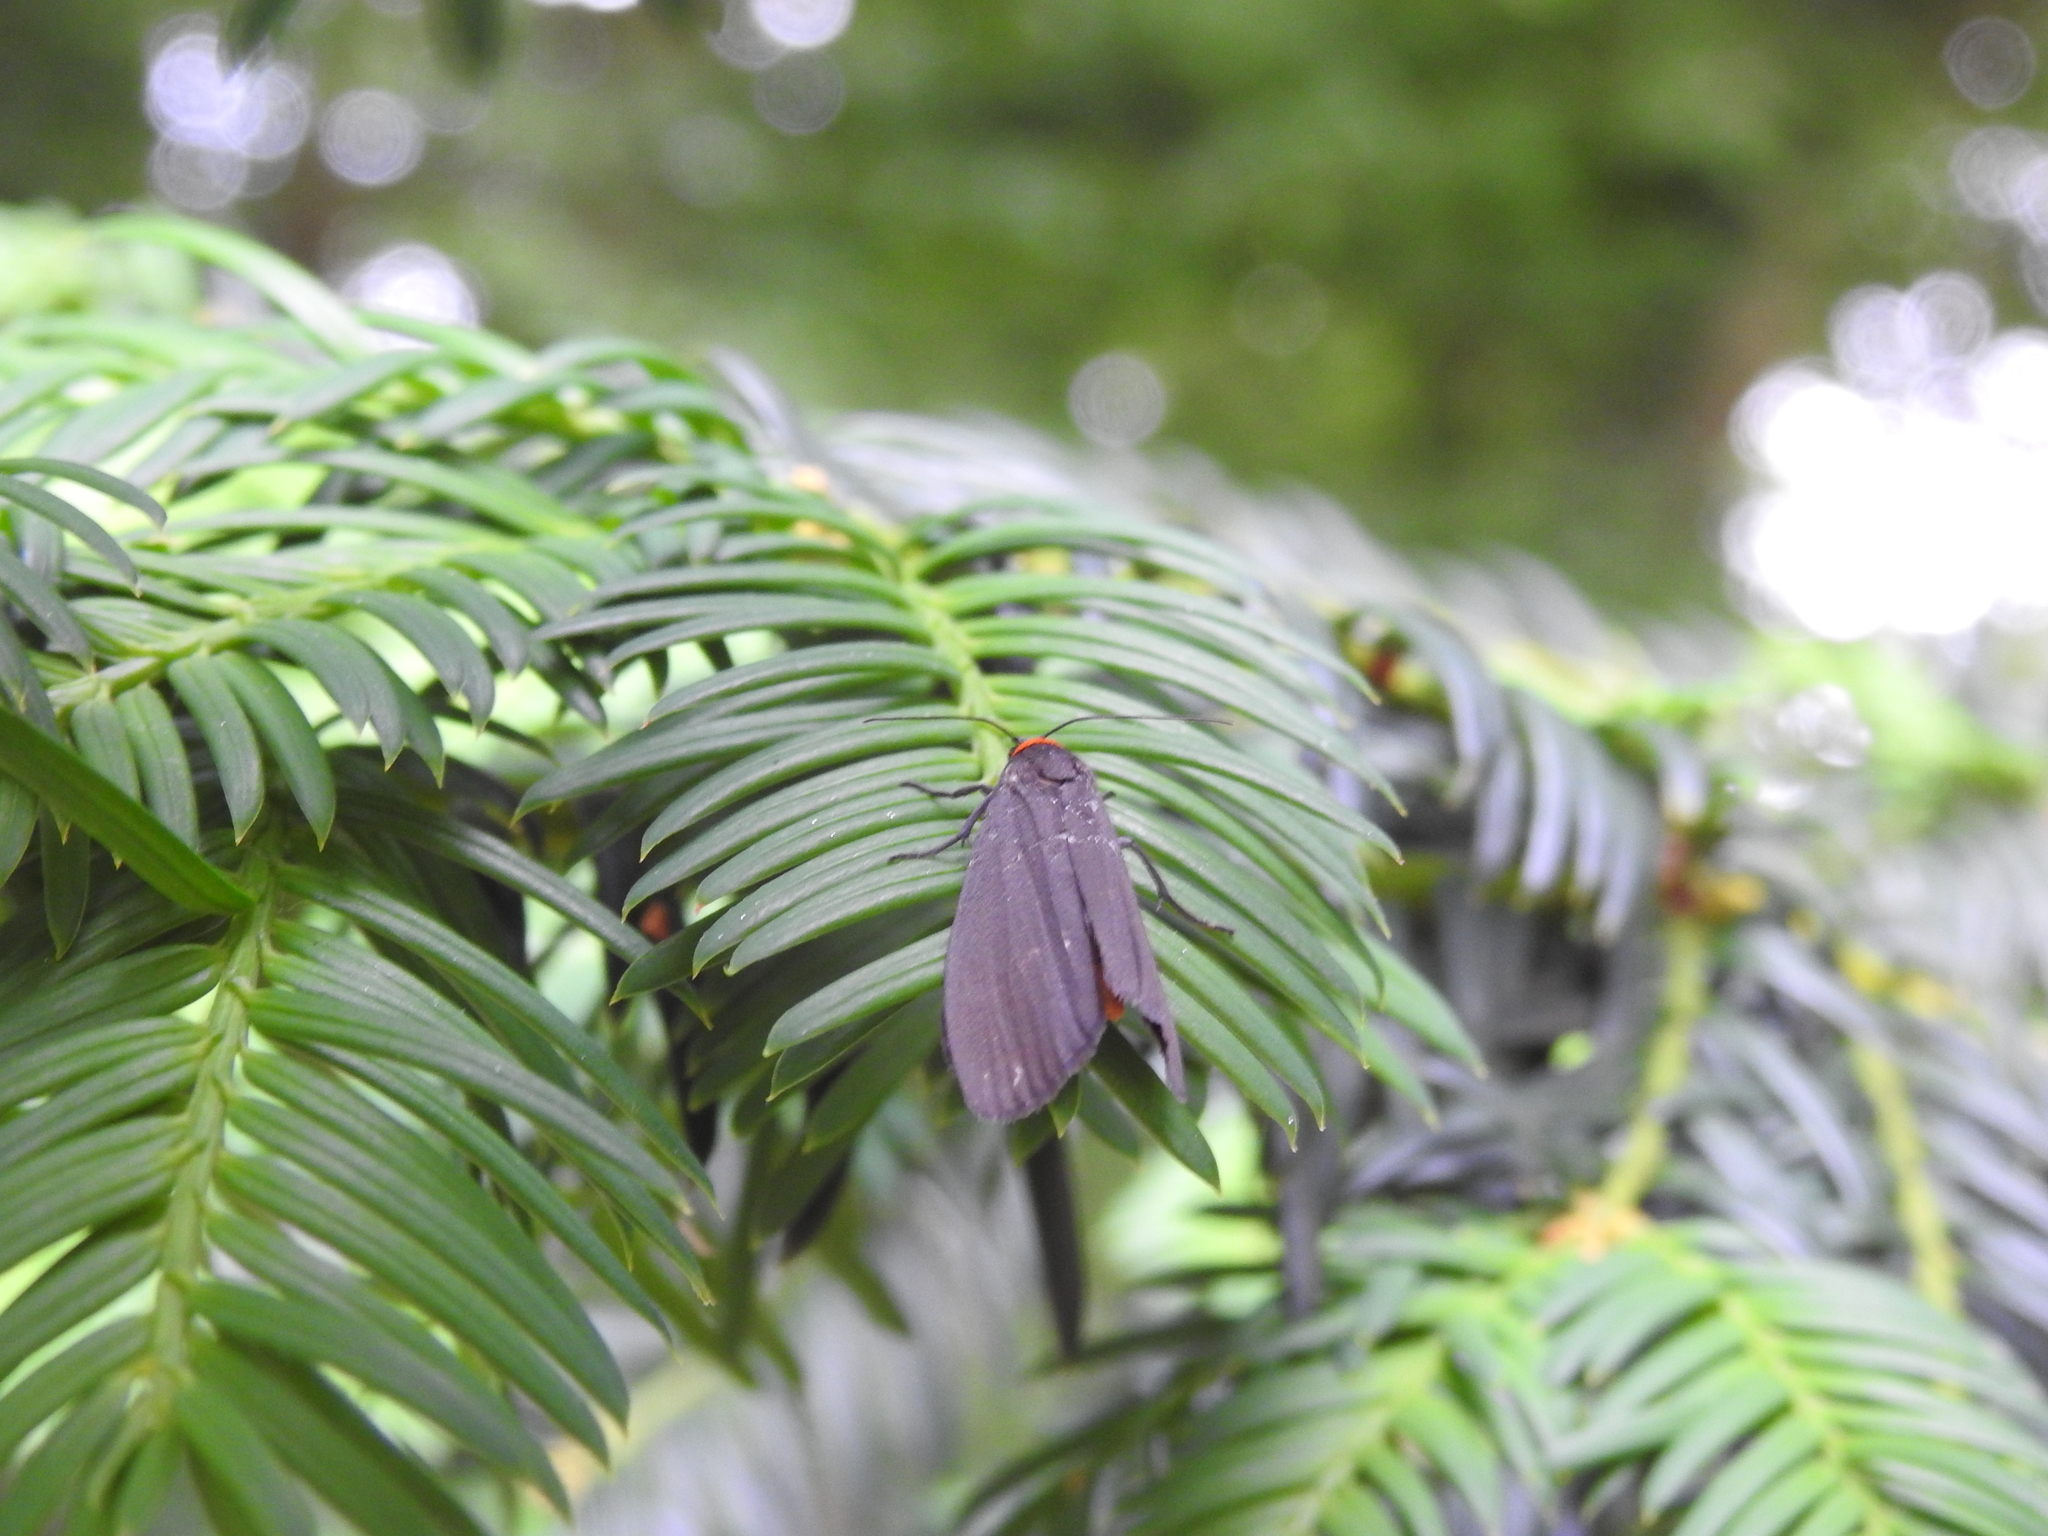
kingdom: Animalia
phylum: Arthropoda
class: Insecta
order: Lepidoptera
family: Erebidae
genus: Atolmis
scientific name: Atolmis rubricollis
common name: Red-necked footman
